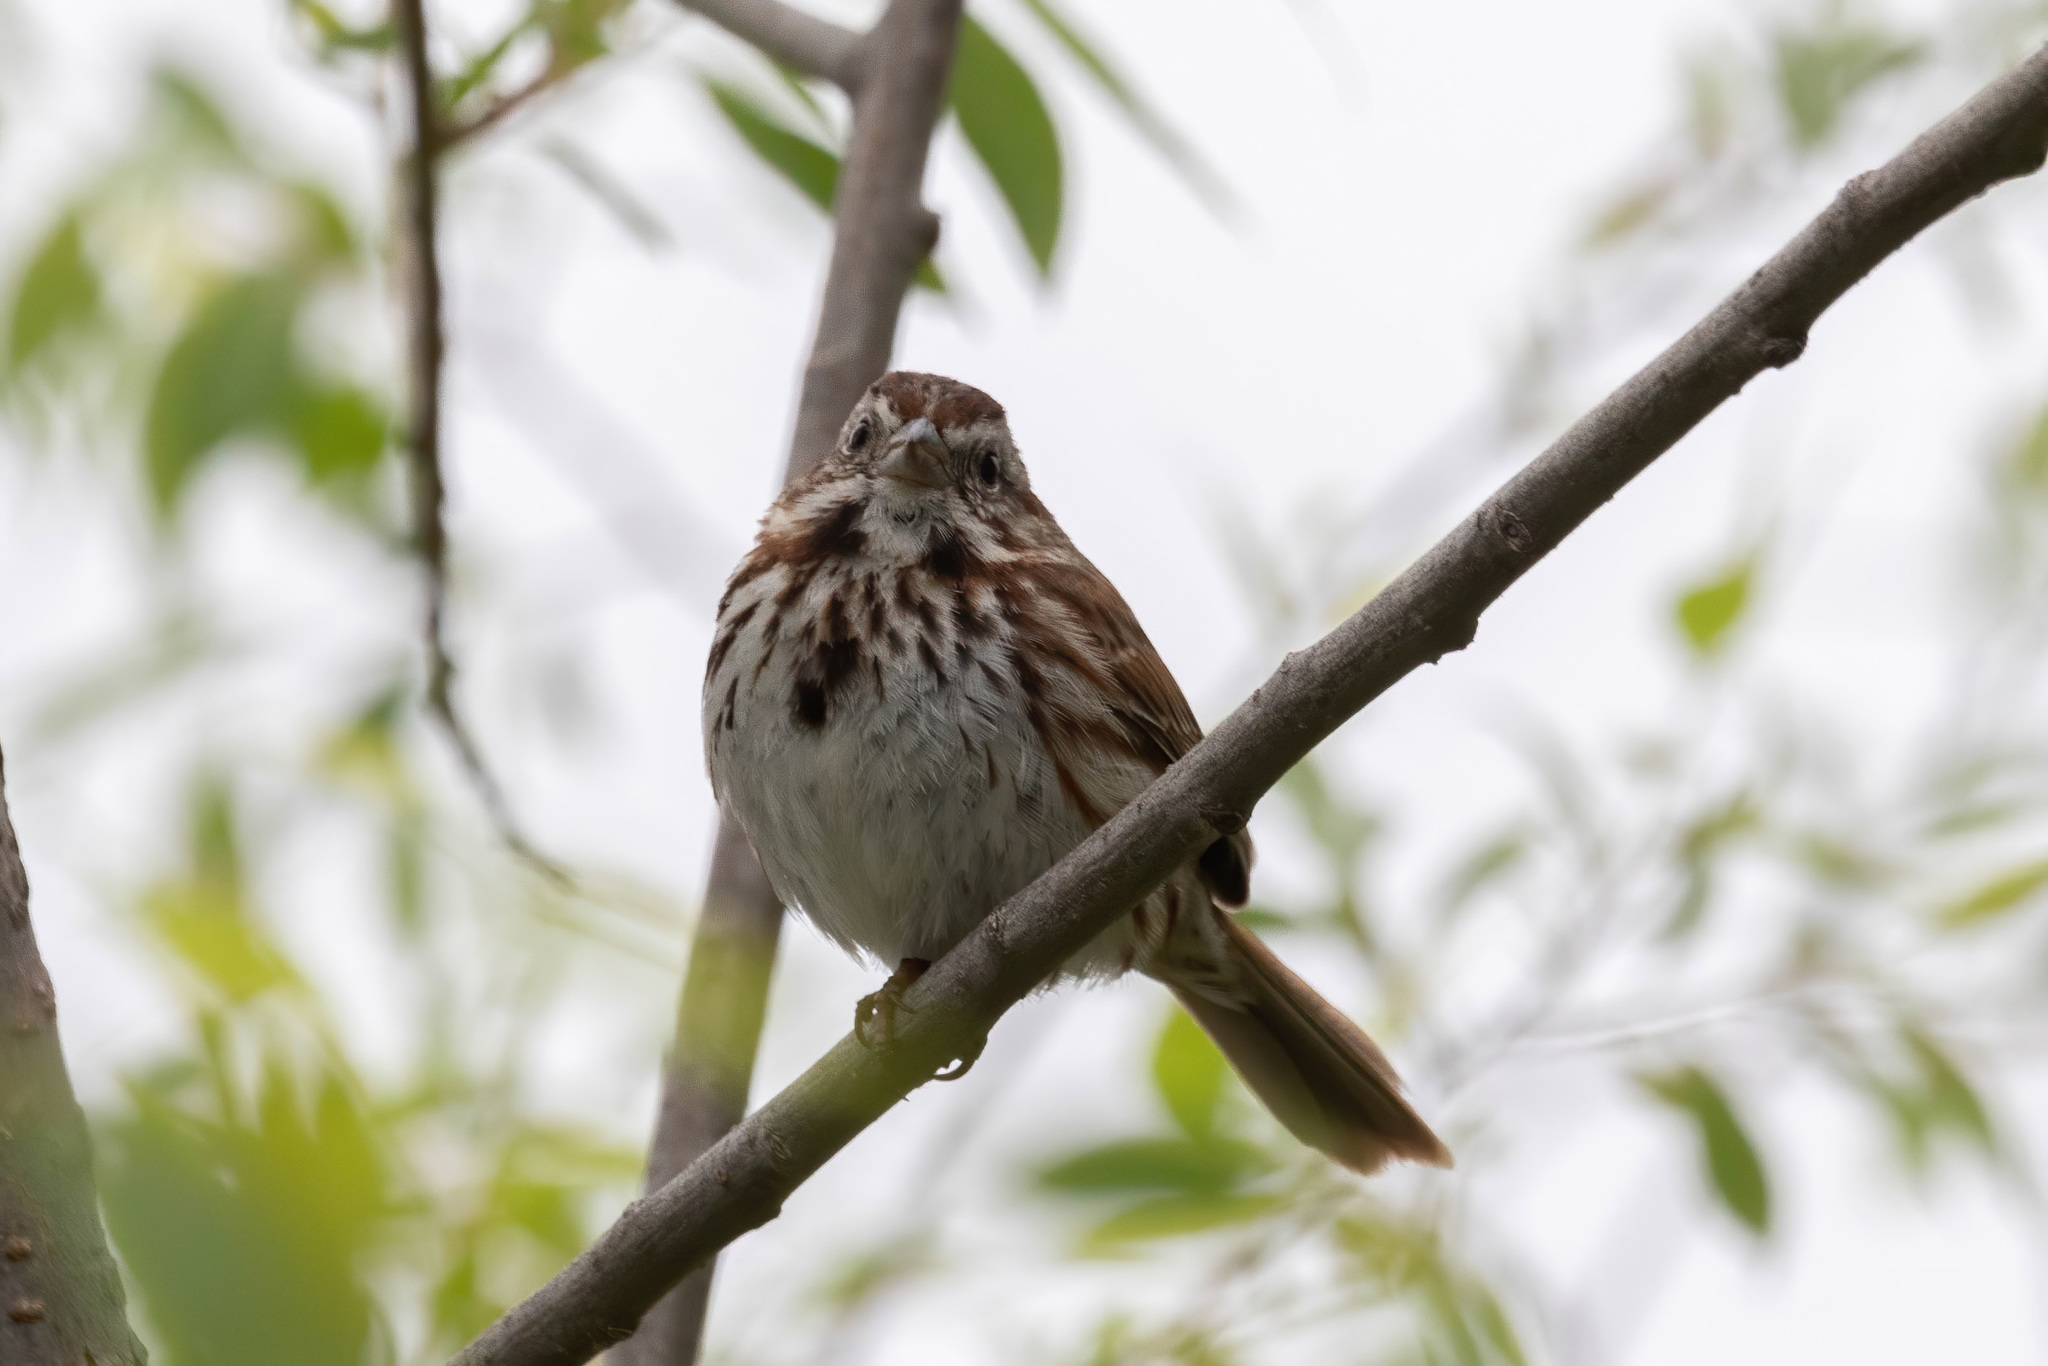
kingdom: Animalia
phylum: Chordata
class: Aves
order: Passeriformes
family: Passerellidae
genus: Melospiza
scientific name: Melospiza melodia
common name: Song sparrow
